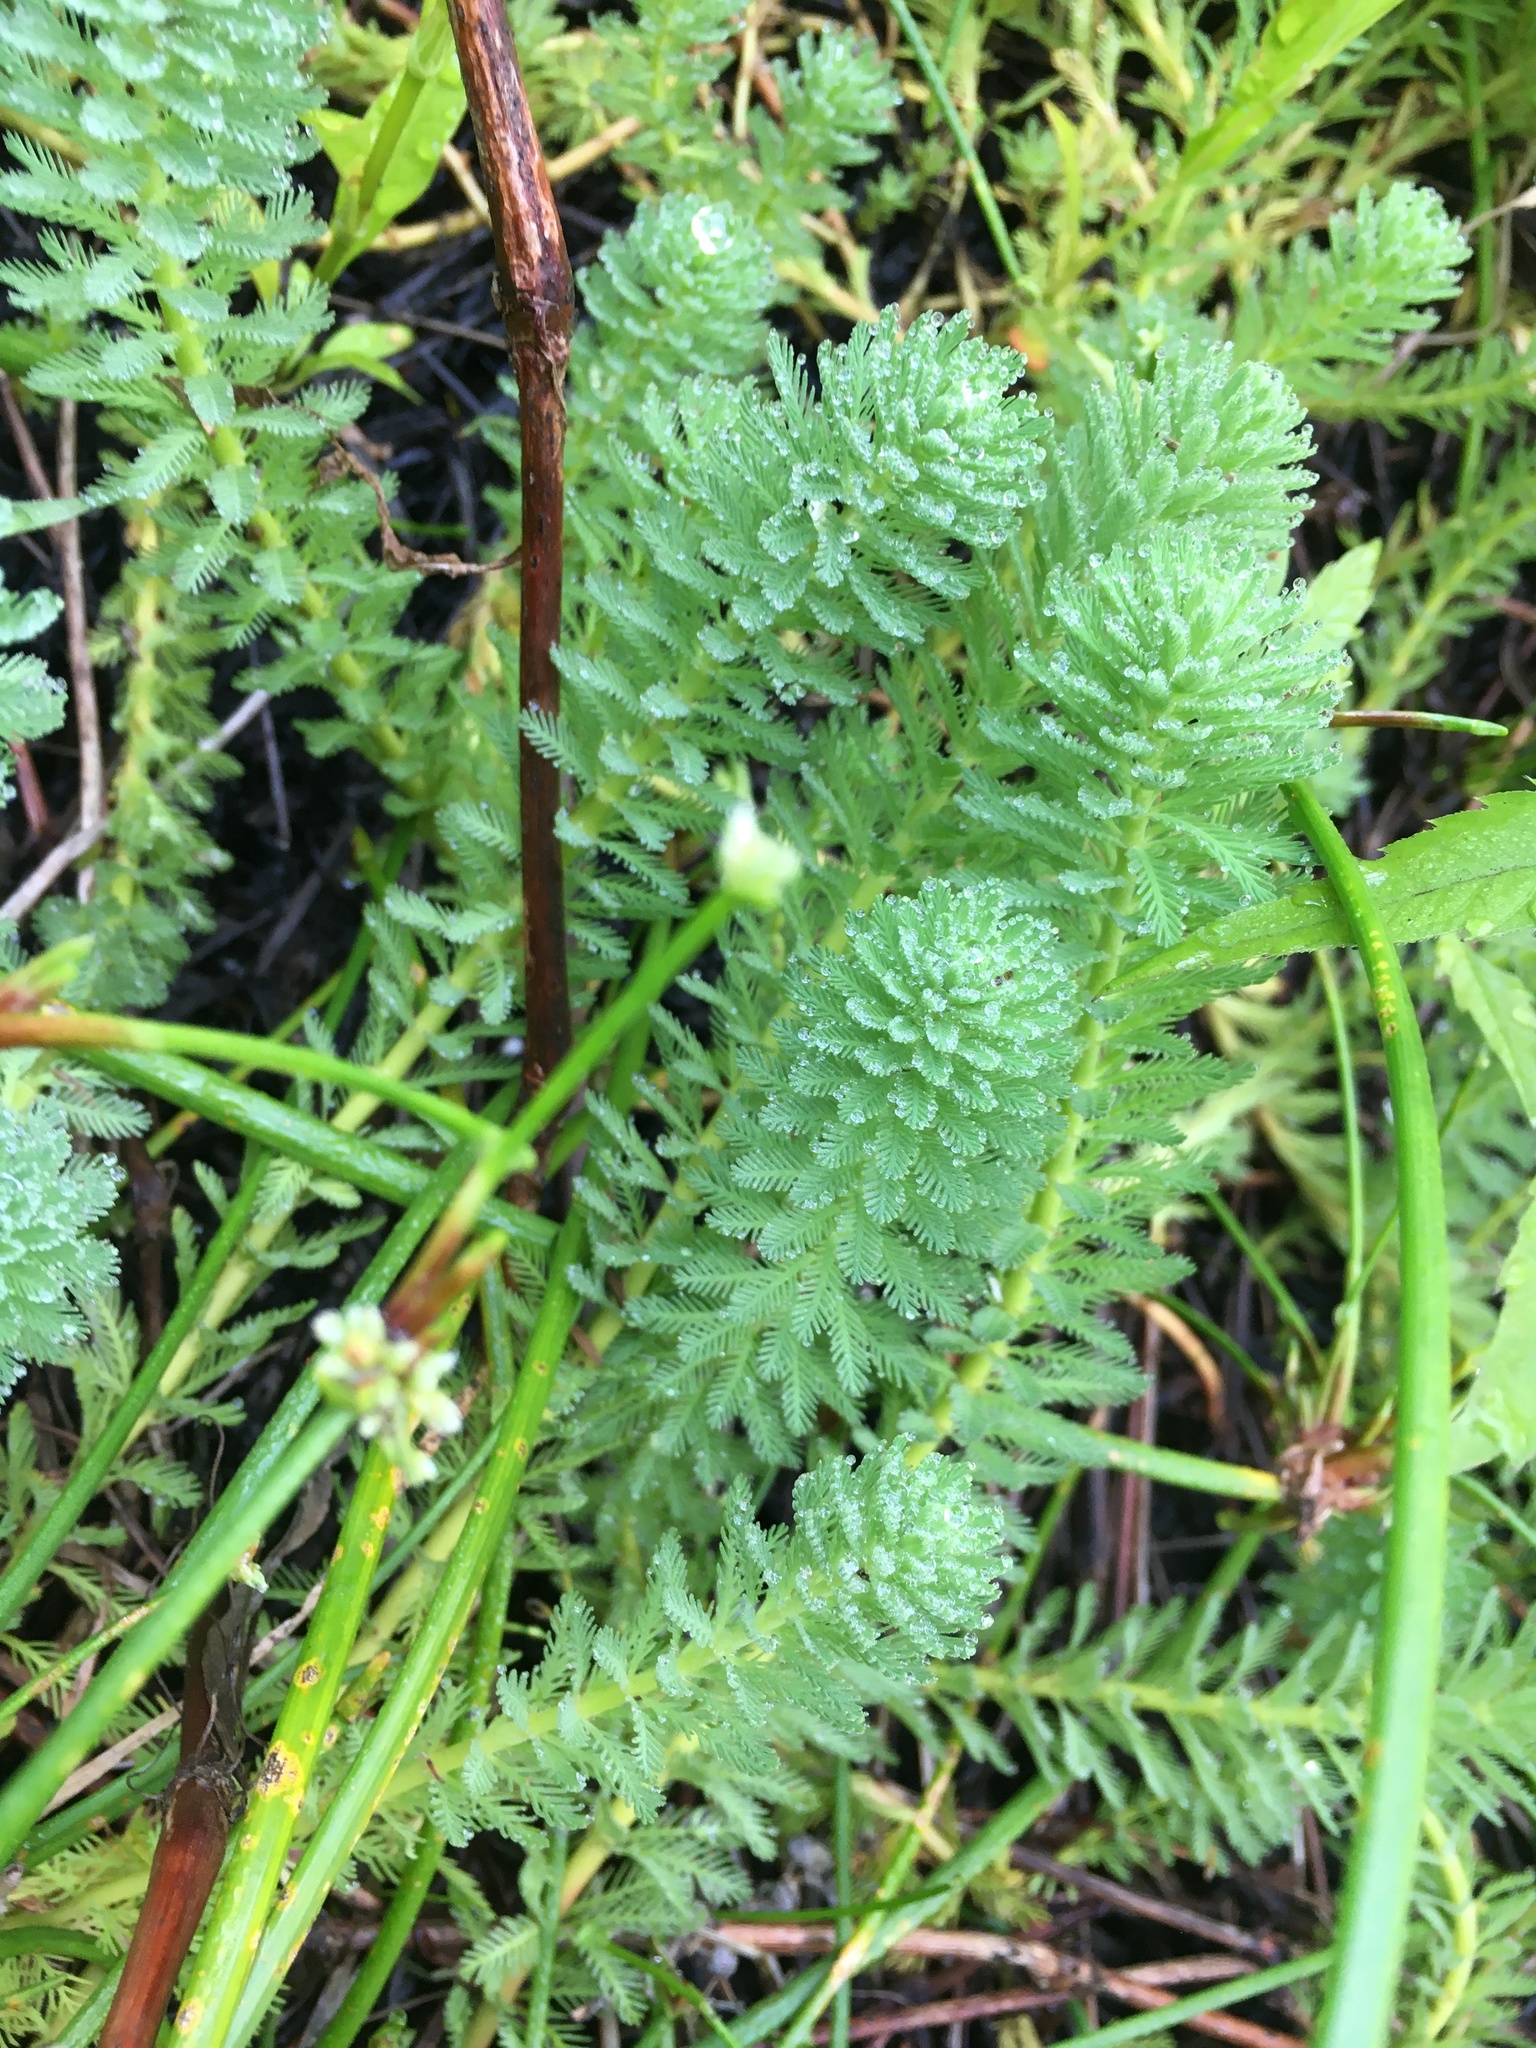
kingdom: Plantae
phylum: Tracheophyta
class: Magnoliopsida
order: Saxifragales
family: Haloragaceae
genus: Myriophyllum
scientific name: Myriophyllum aquaticum
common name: Parrot's feather
